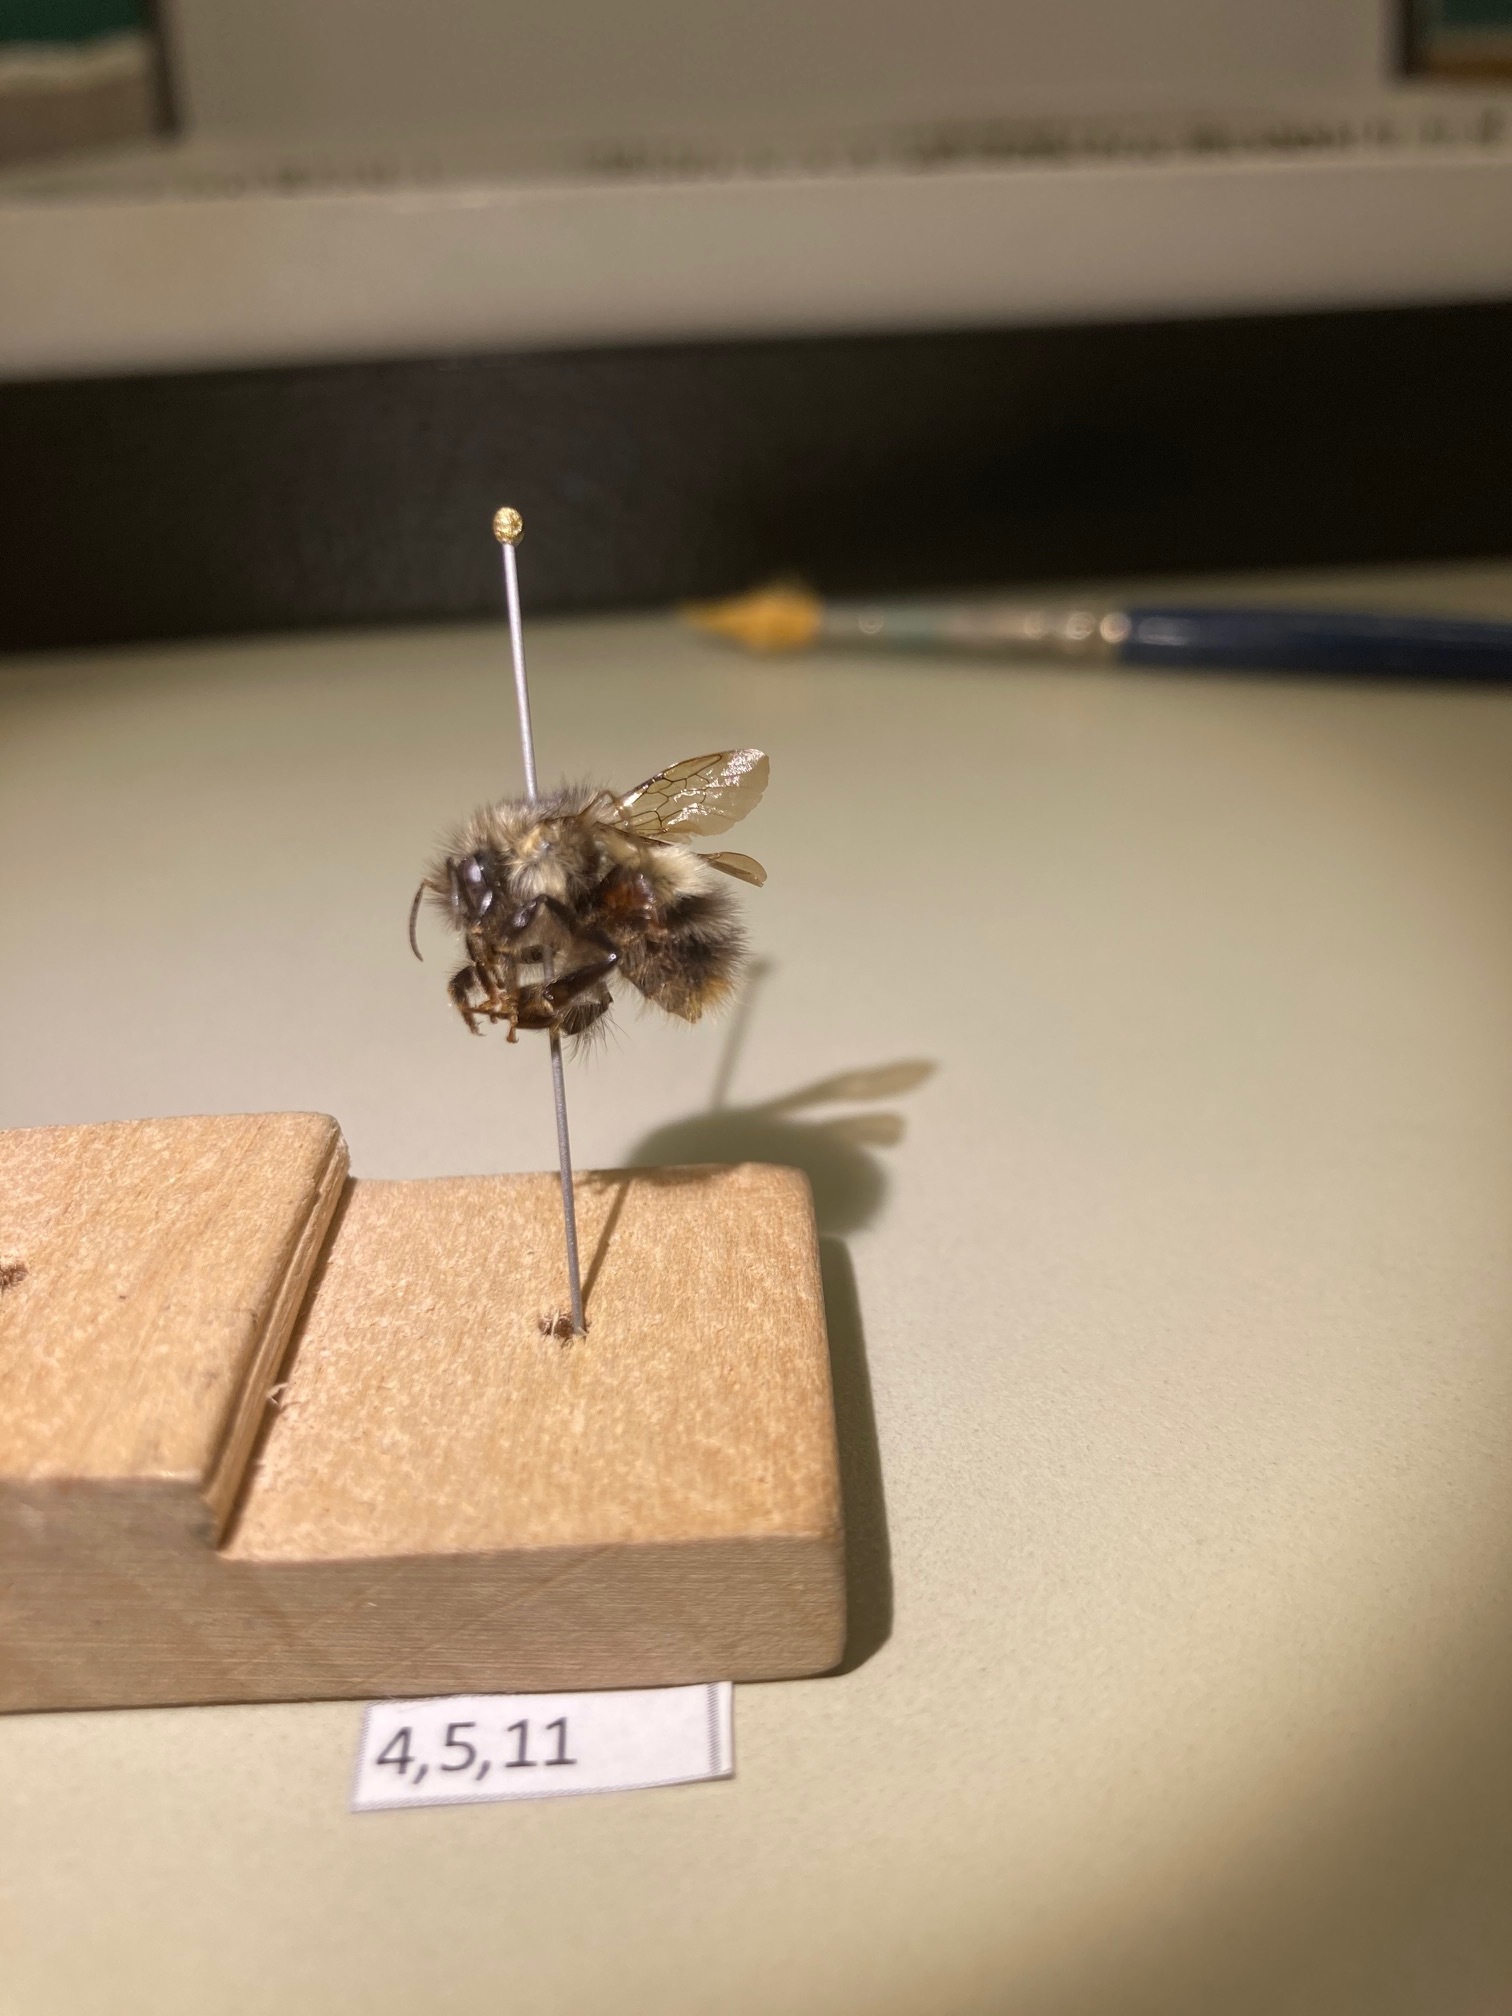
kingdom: Animalia
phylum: Arthropoda
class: Insecta
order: Hymenoptera
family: Apidae
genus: Bombus
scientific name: Bombus sitkensis
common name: Sitka bumble bee
